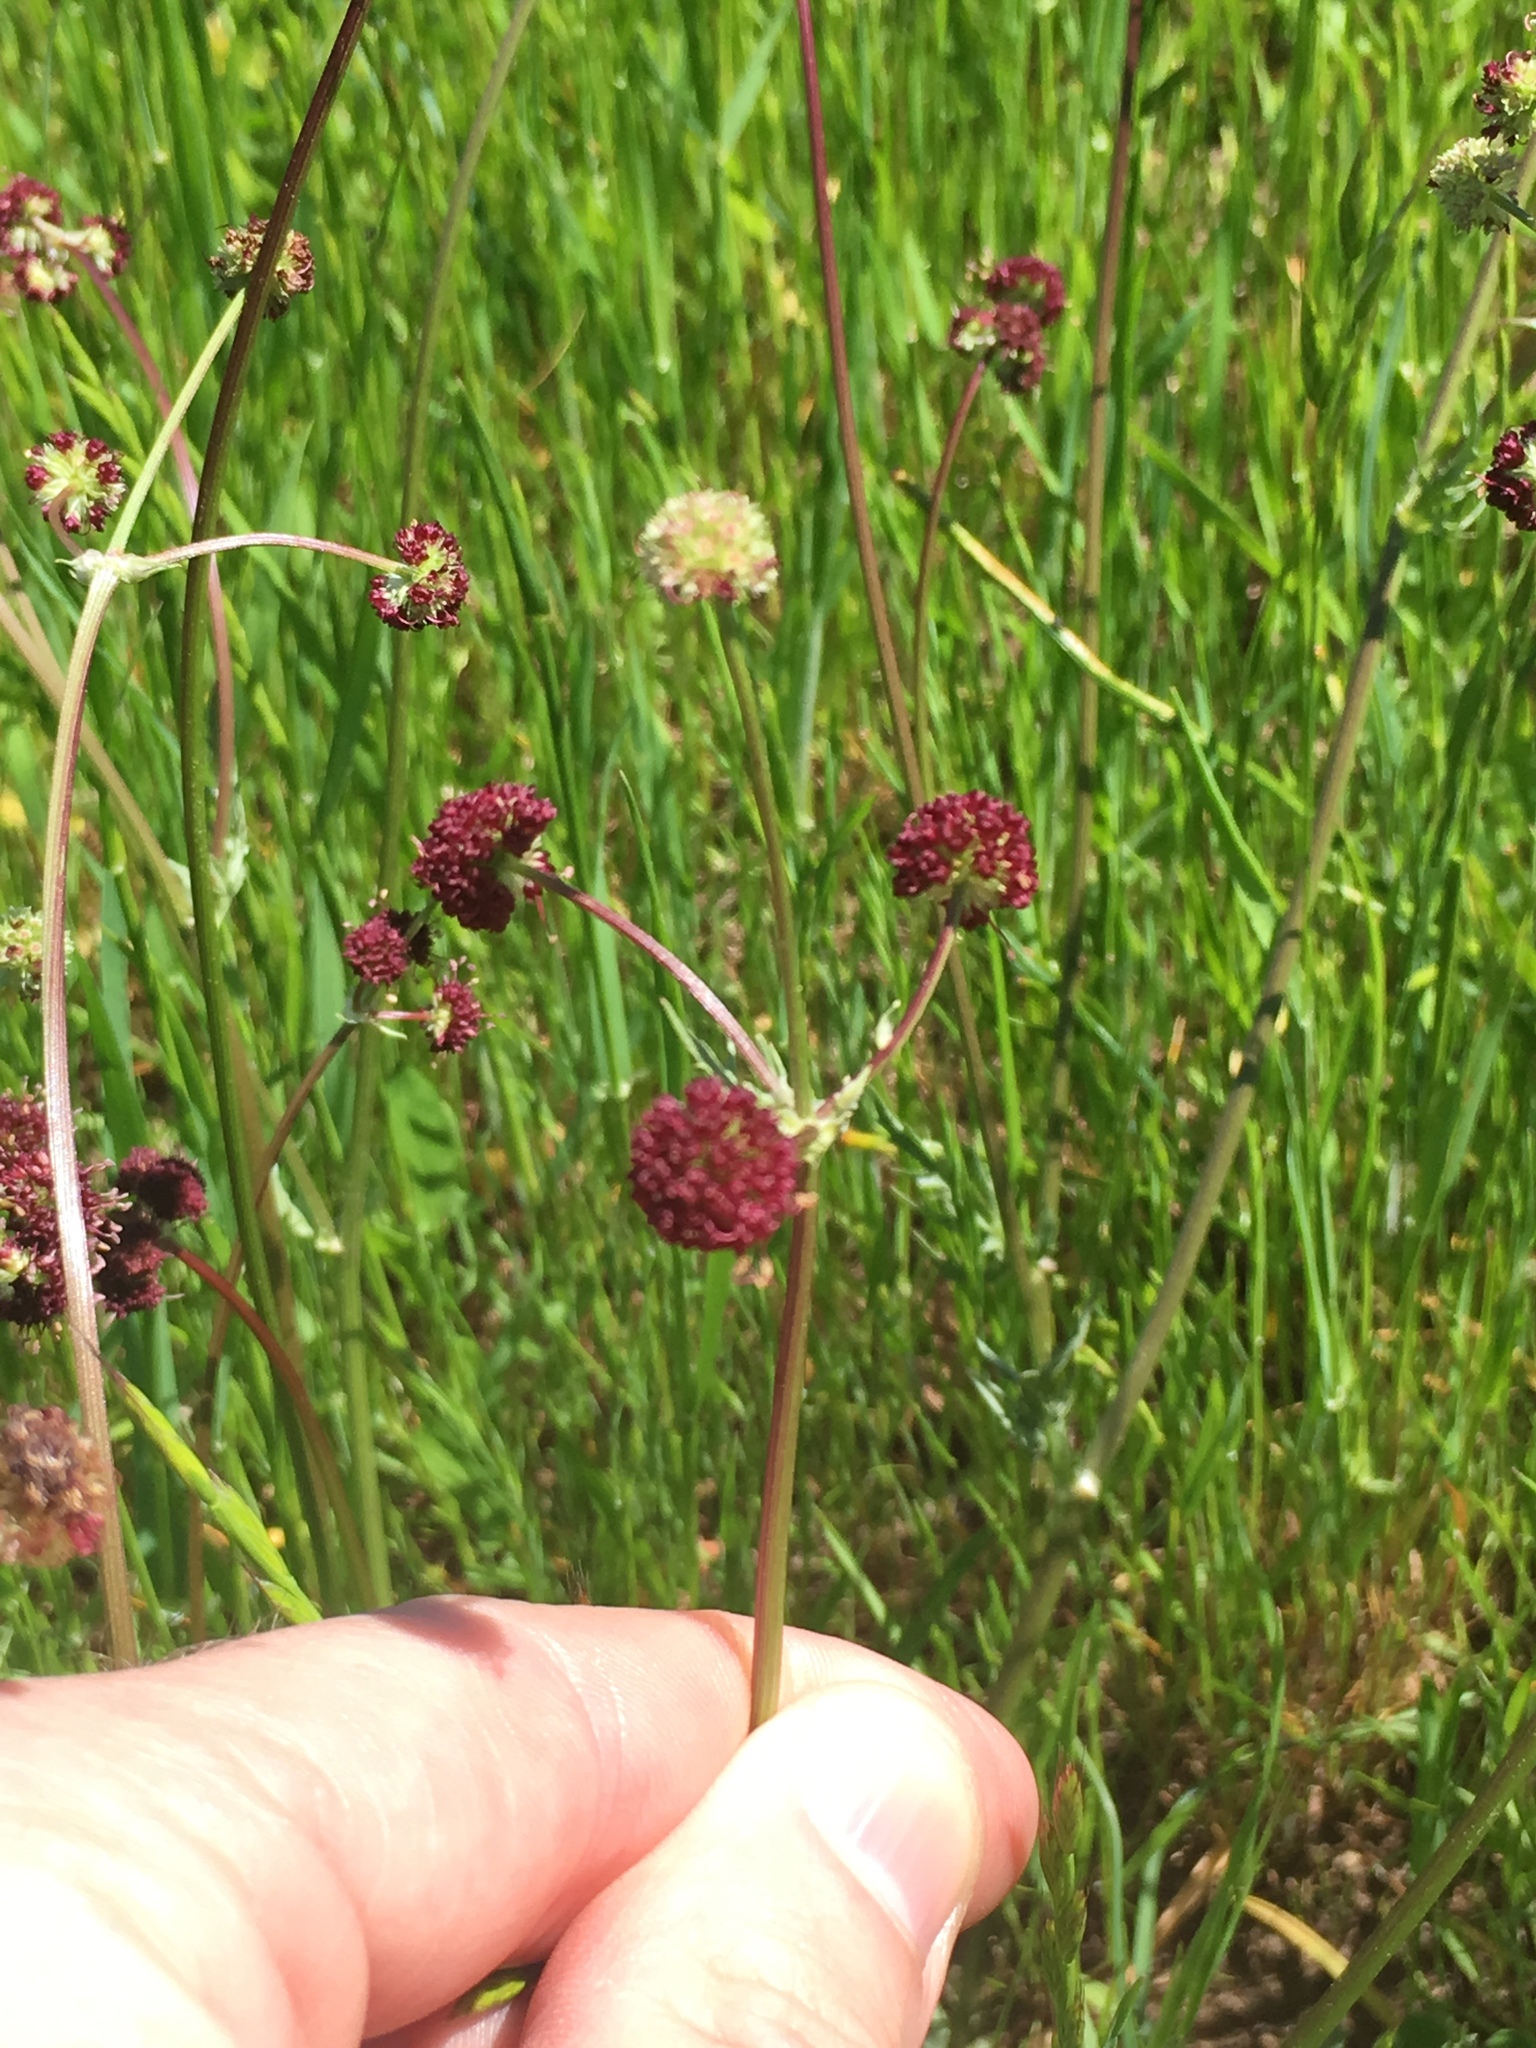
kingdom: Plantae
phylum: Tracheophyta
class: Magnoliopsida
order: Apiales
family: Apiaceae
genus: Sanicula
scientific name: Sanicula bipinnatifida
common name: Shoe-buttons
